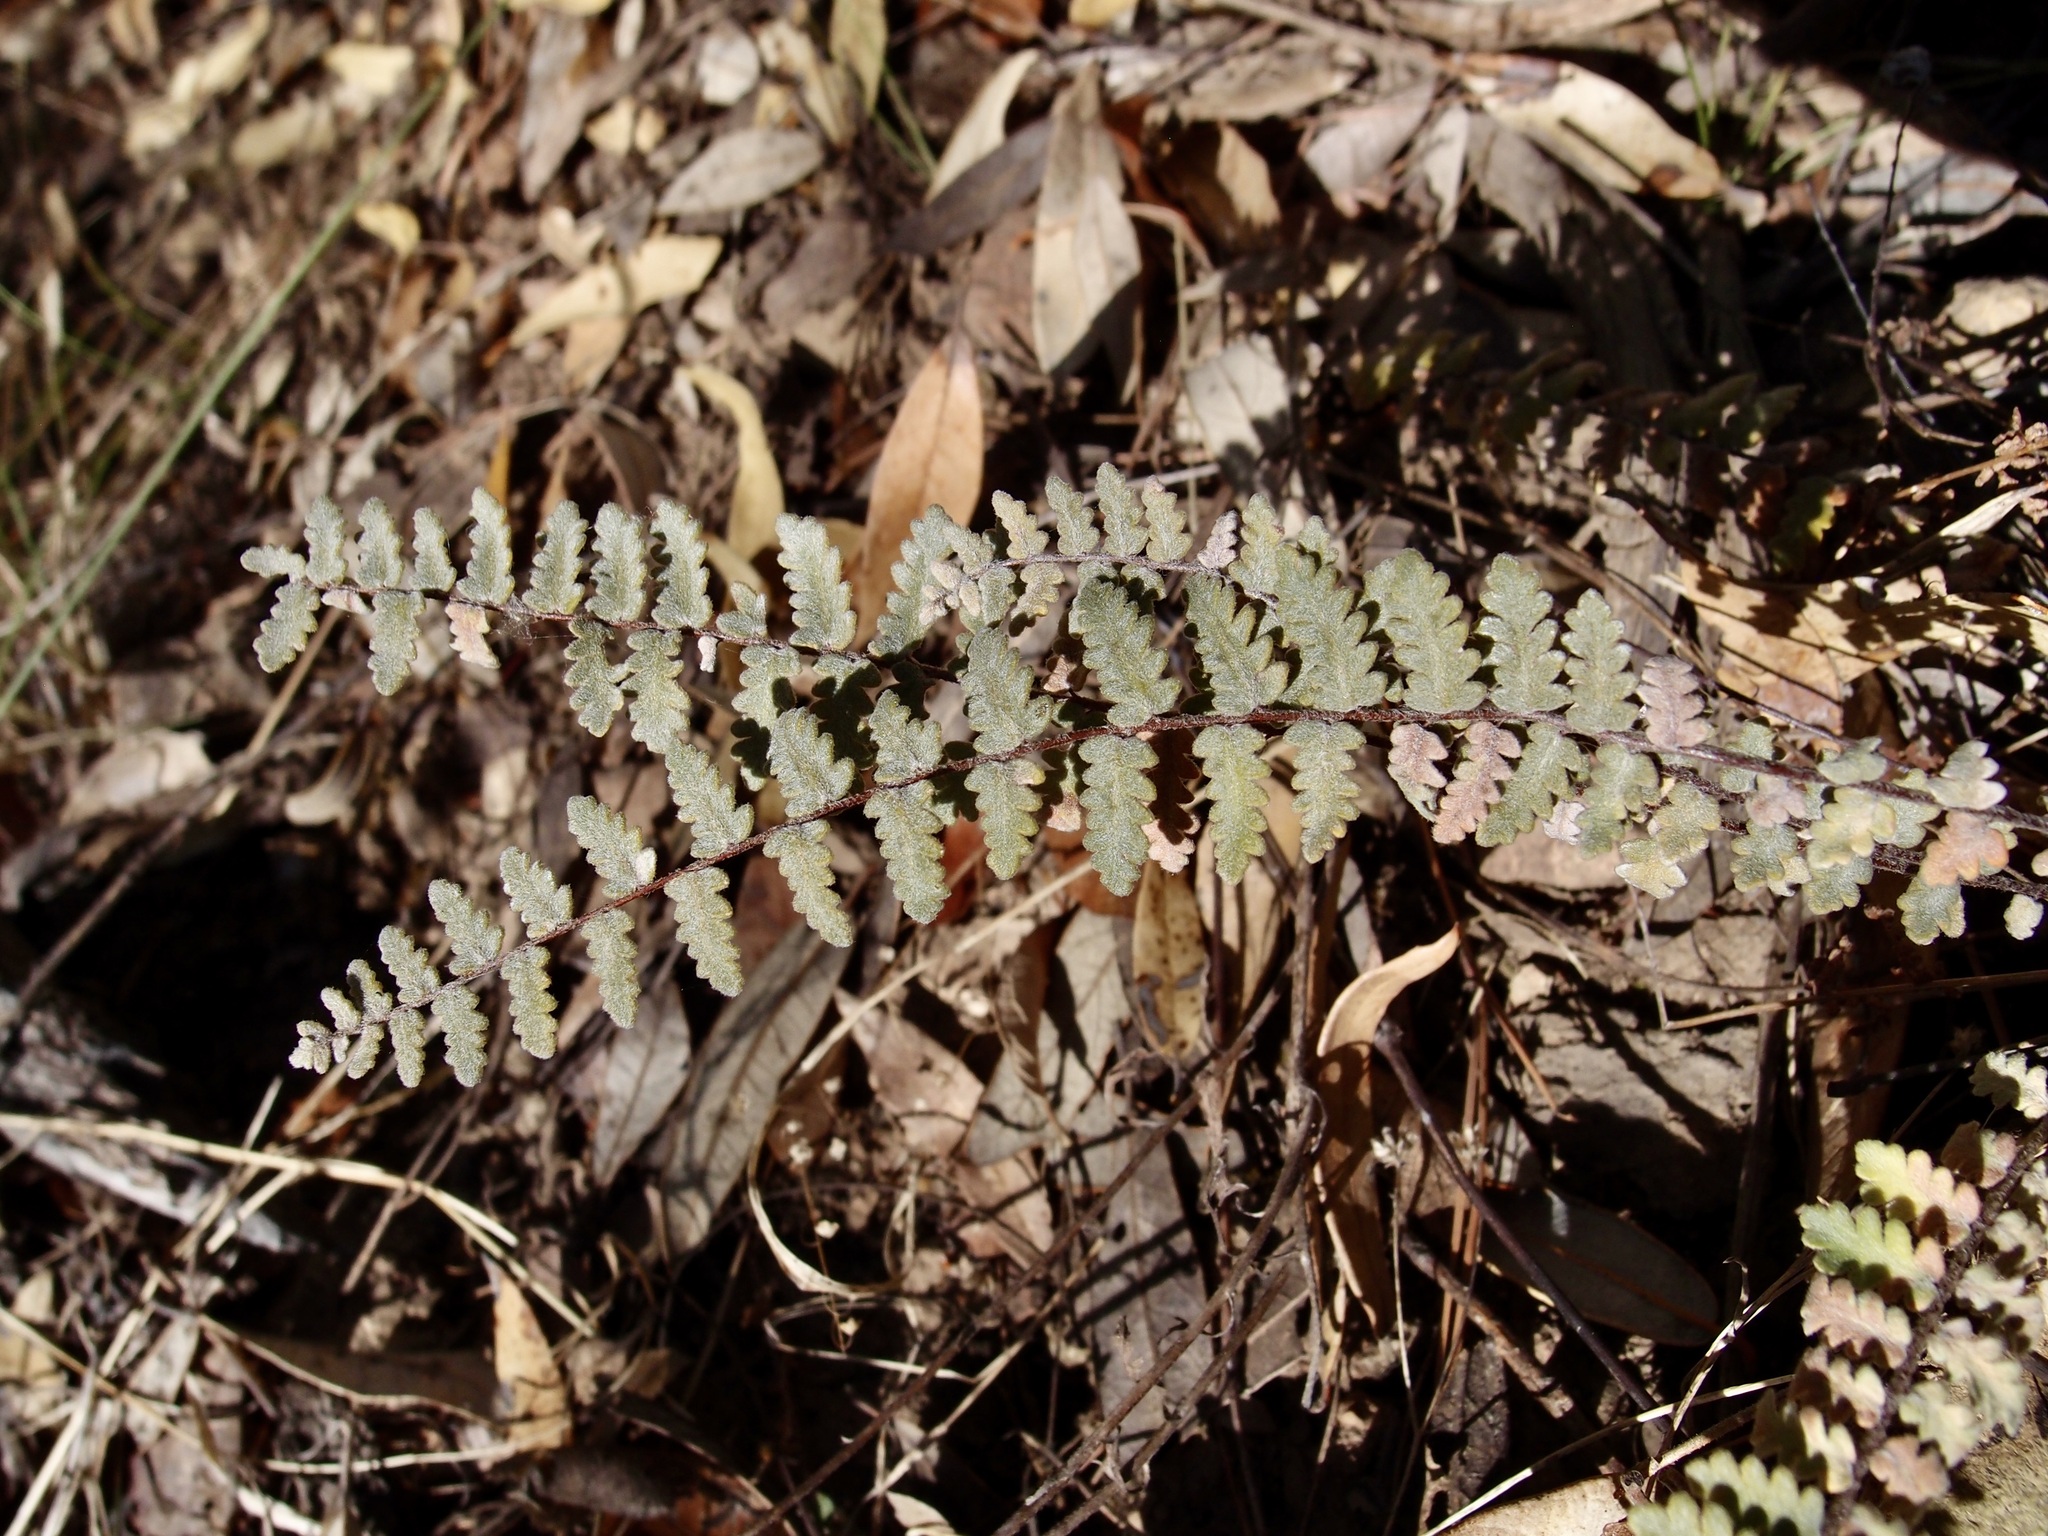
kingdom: Plantae
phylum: Tracheophyta
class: Polypodiopsida
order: Polypodiales
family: Pteridaceae
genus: Myriopteris
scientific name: Myriopteris aurea
